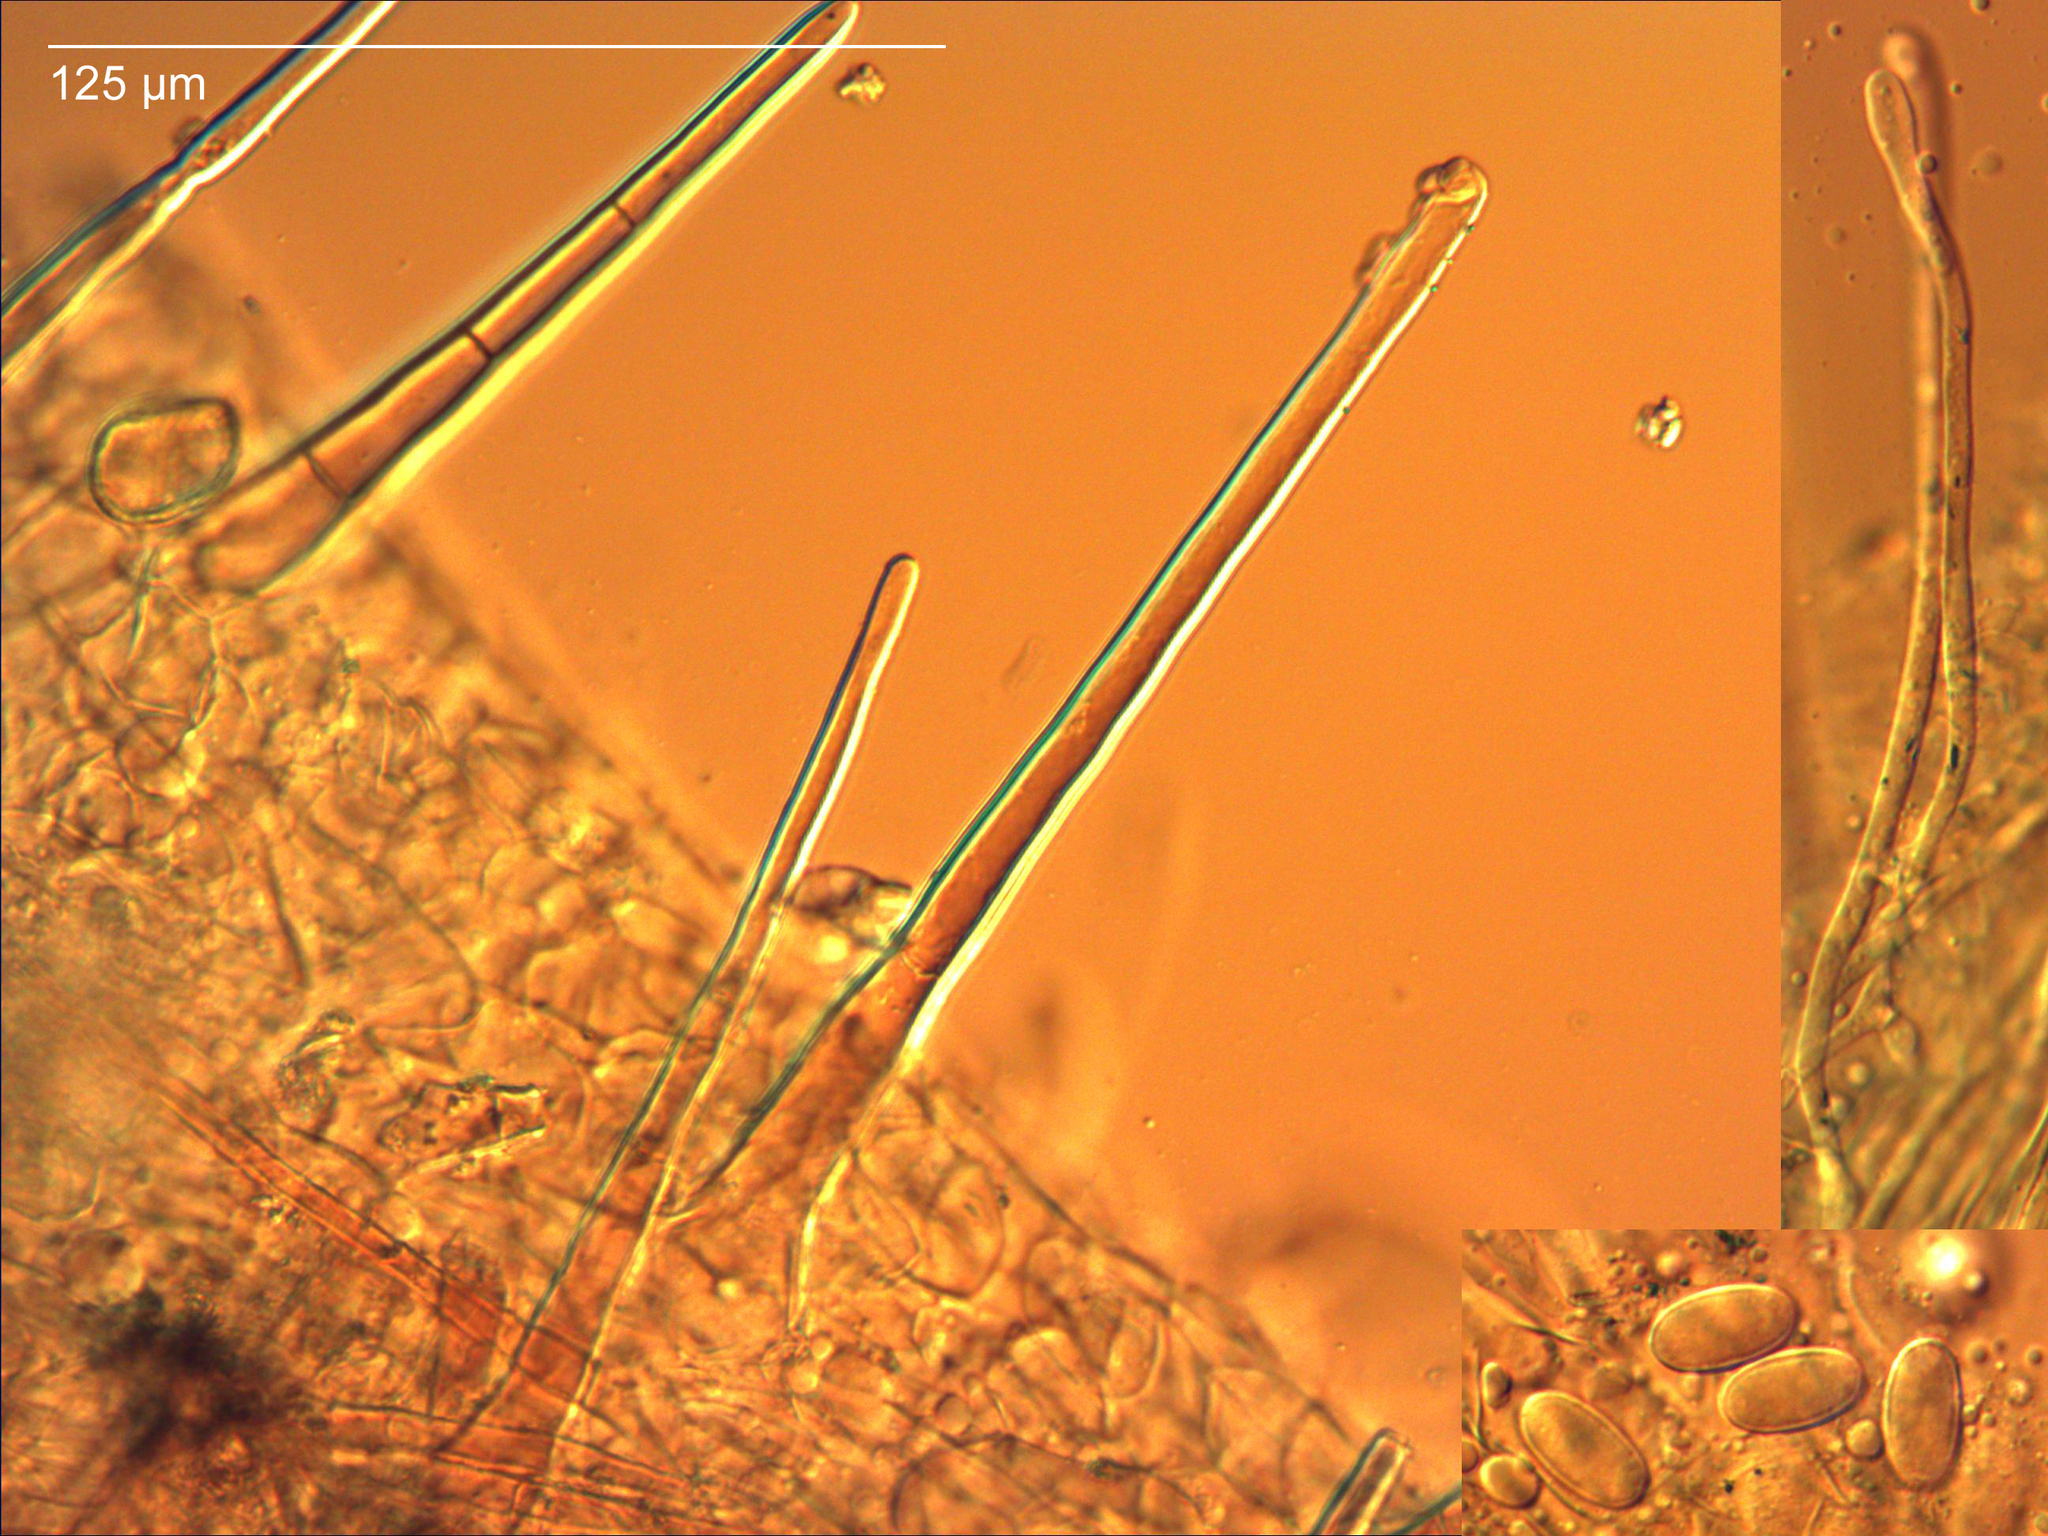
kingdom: Fungi
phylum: Ascomycota
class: Pezizomycetes
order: Pezizales
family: Pyronemataceae
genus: Cheilymenia
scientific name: Cheilymenia raripila
